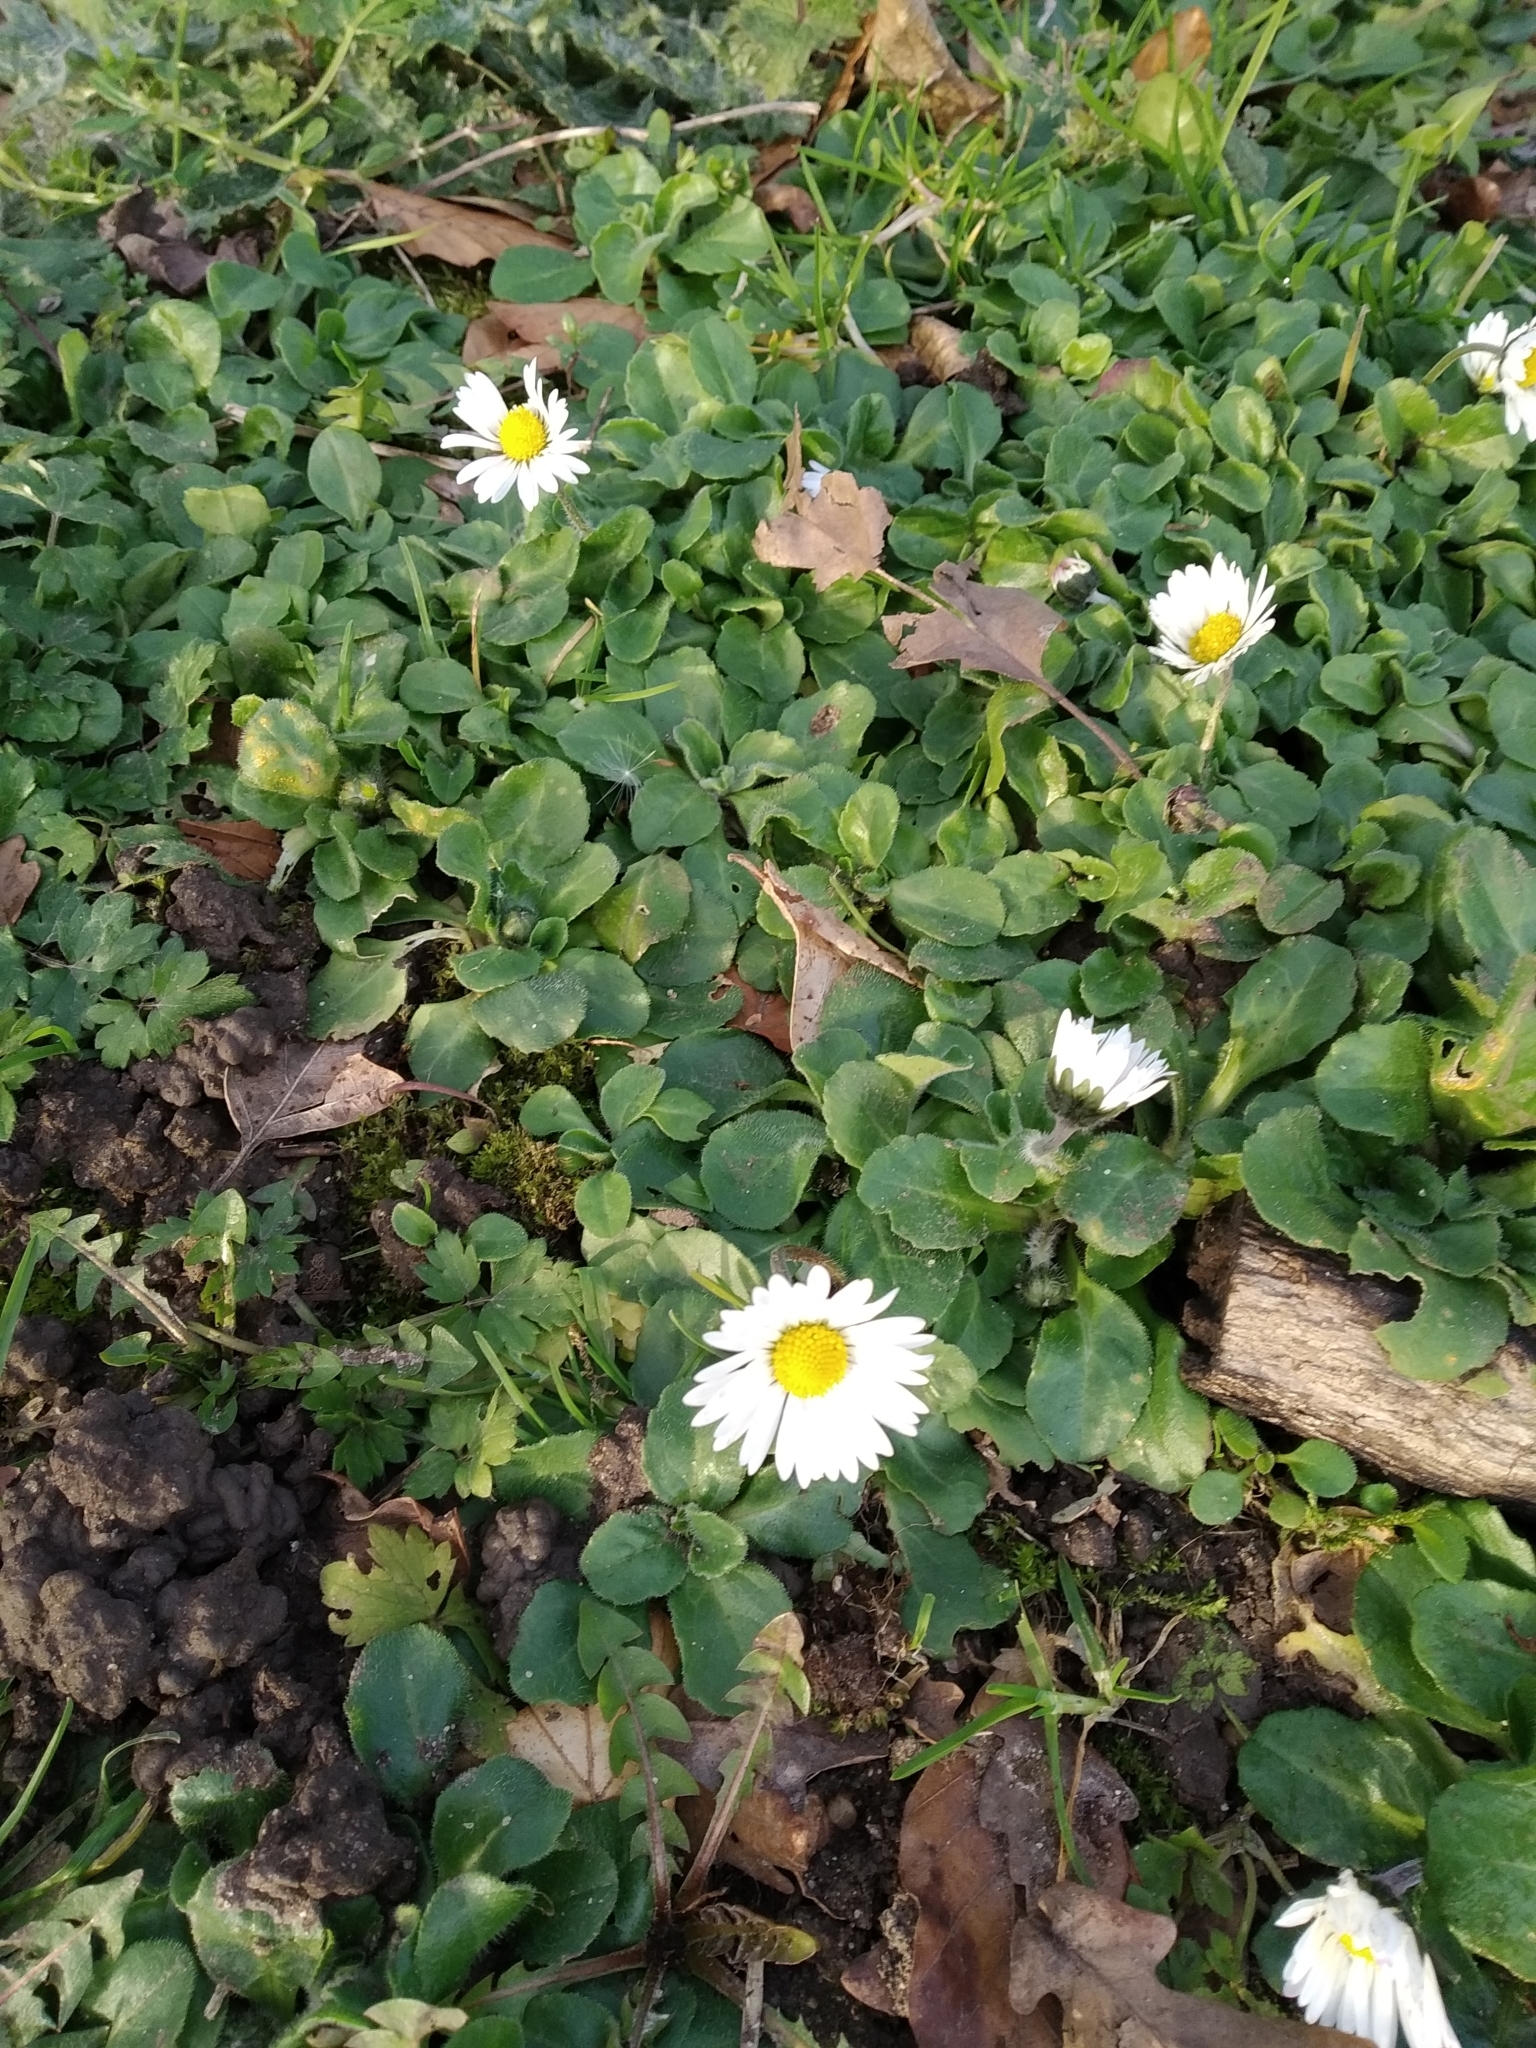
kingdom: Plantae
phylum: Tracheophyta
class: Magnoliopsida
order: Asterales
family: Asteraceae
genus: Bellis
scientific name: Bellis perennis
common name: Lawndaisy
